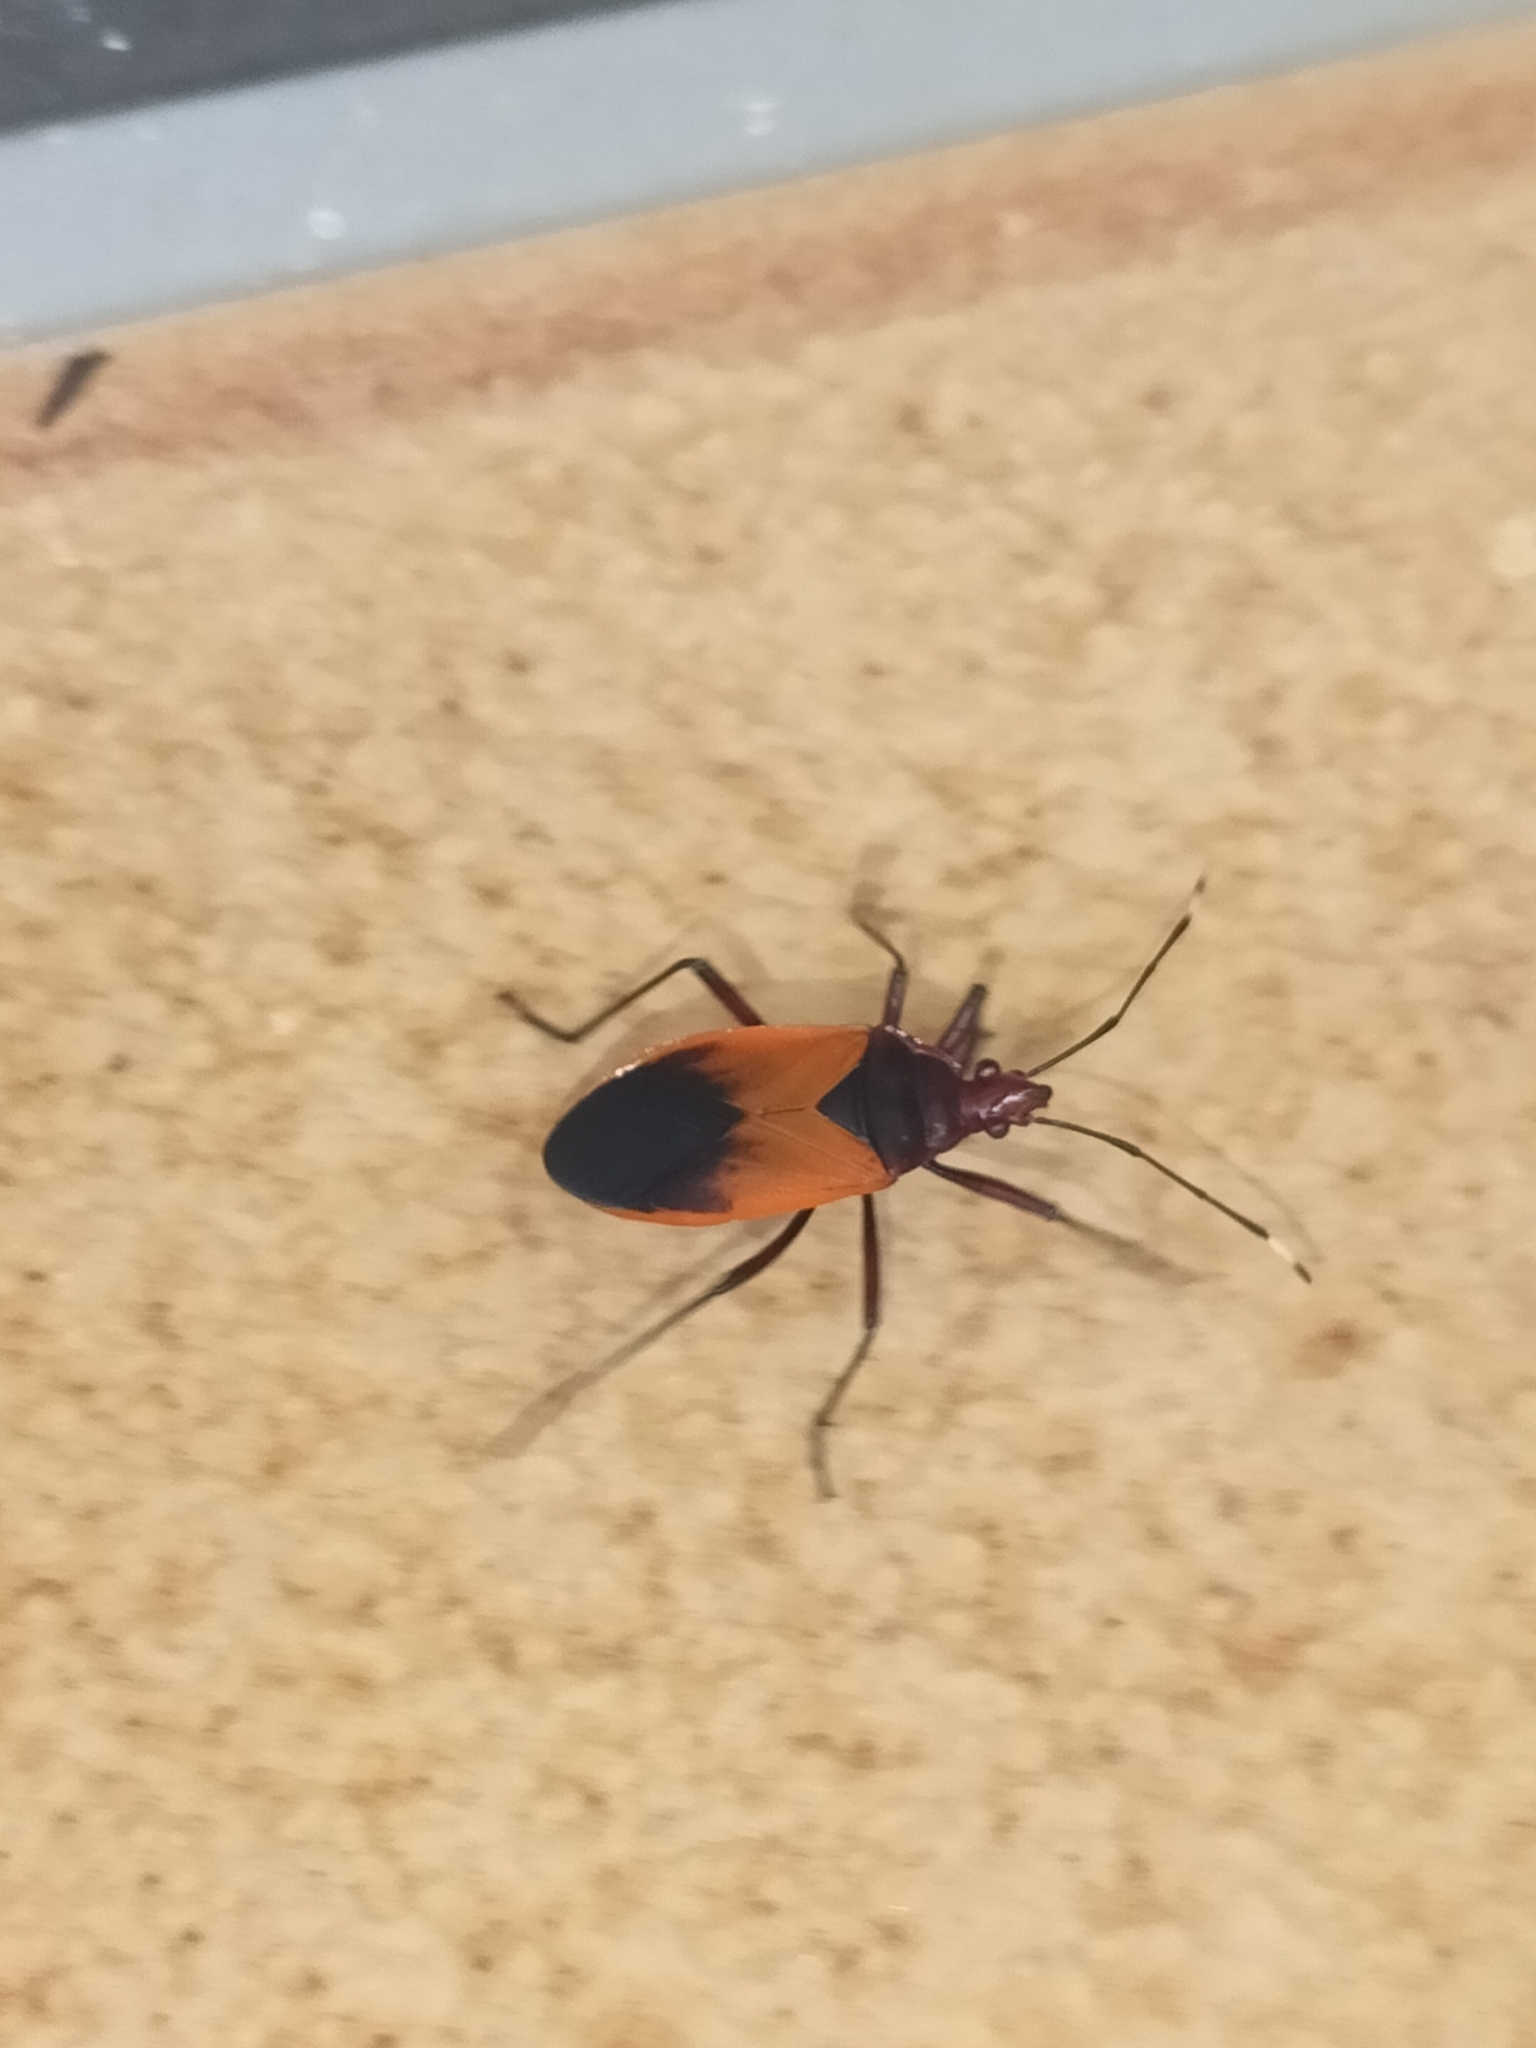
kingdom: Animalia
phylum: Arthropoda
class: Insecta
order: Hemiptera
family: Pyrrhocoridae
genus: Dindymus
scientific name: Dindymus
